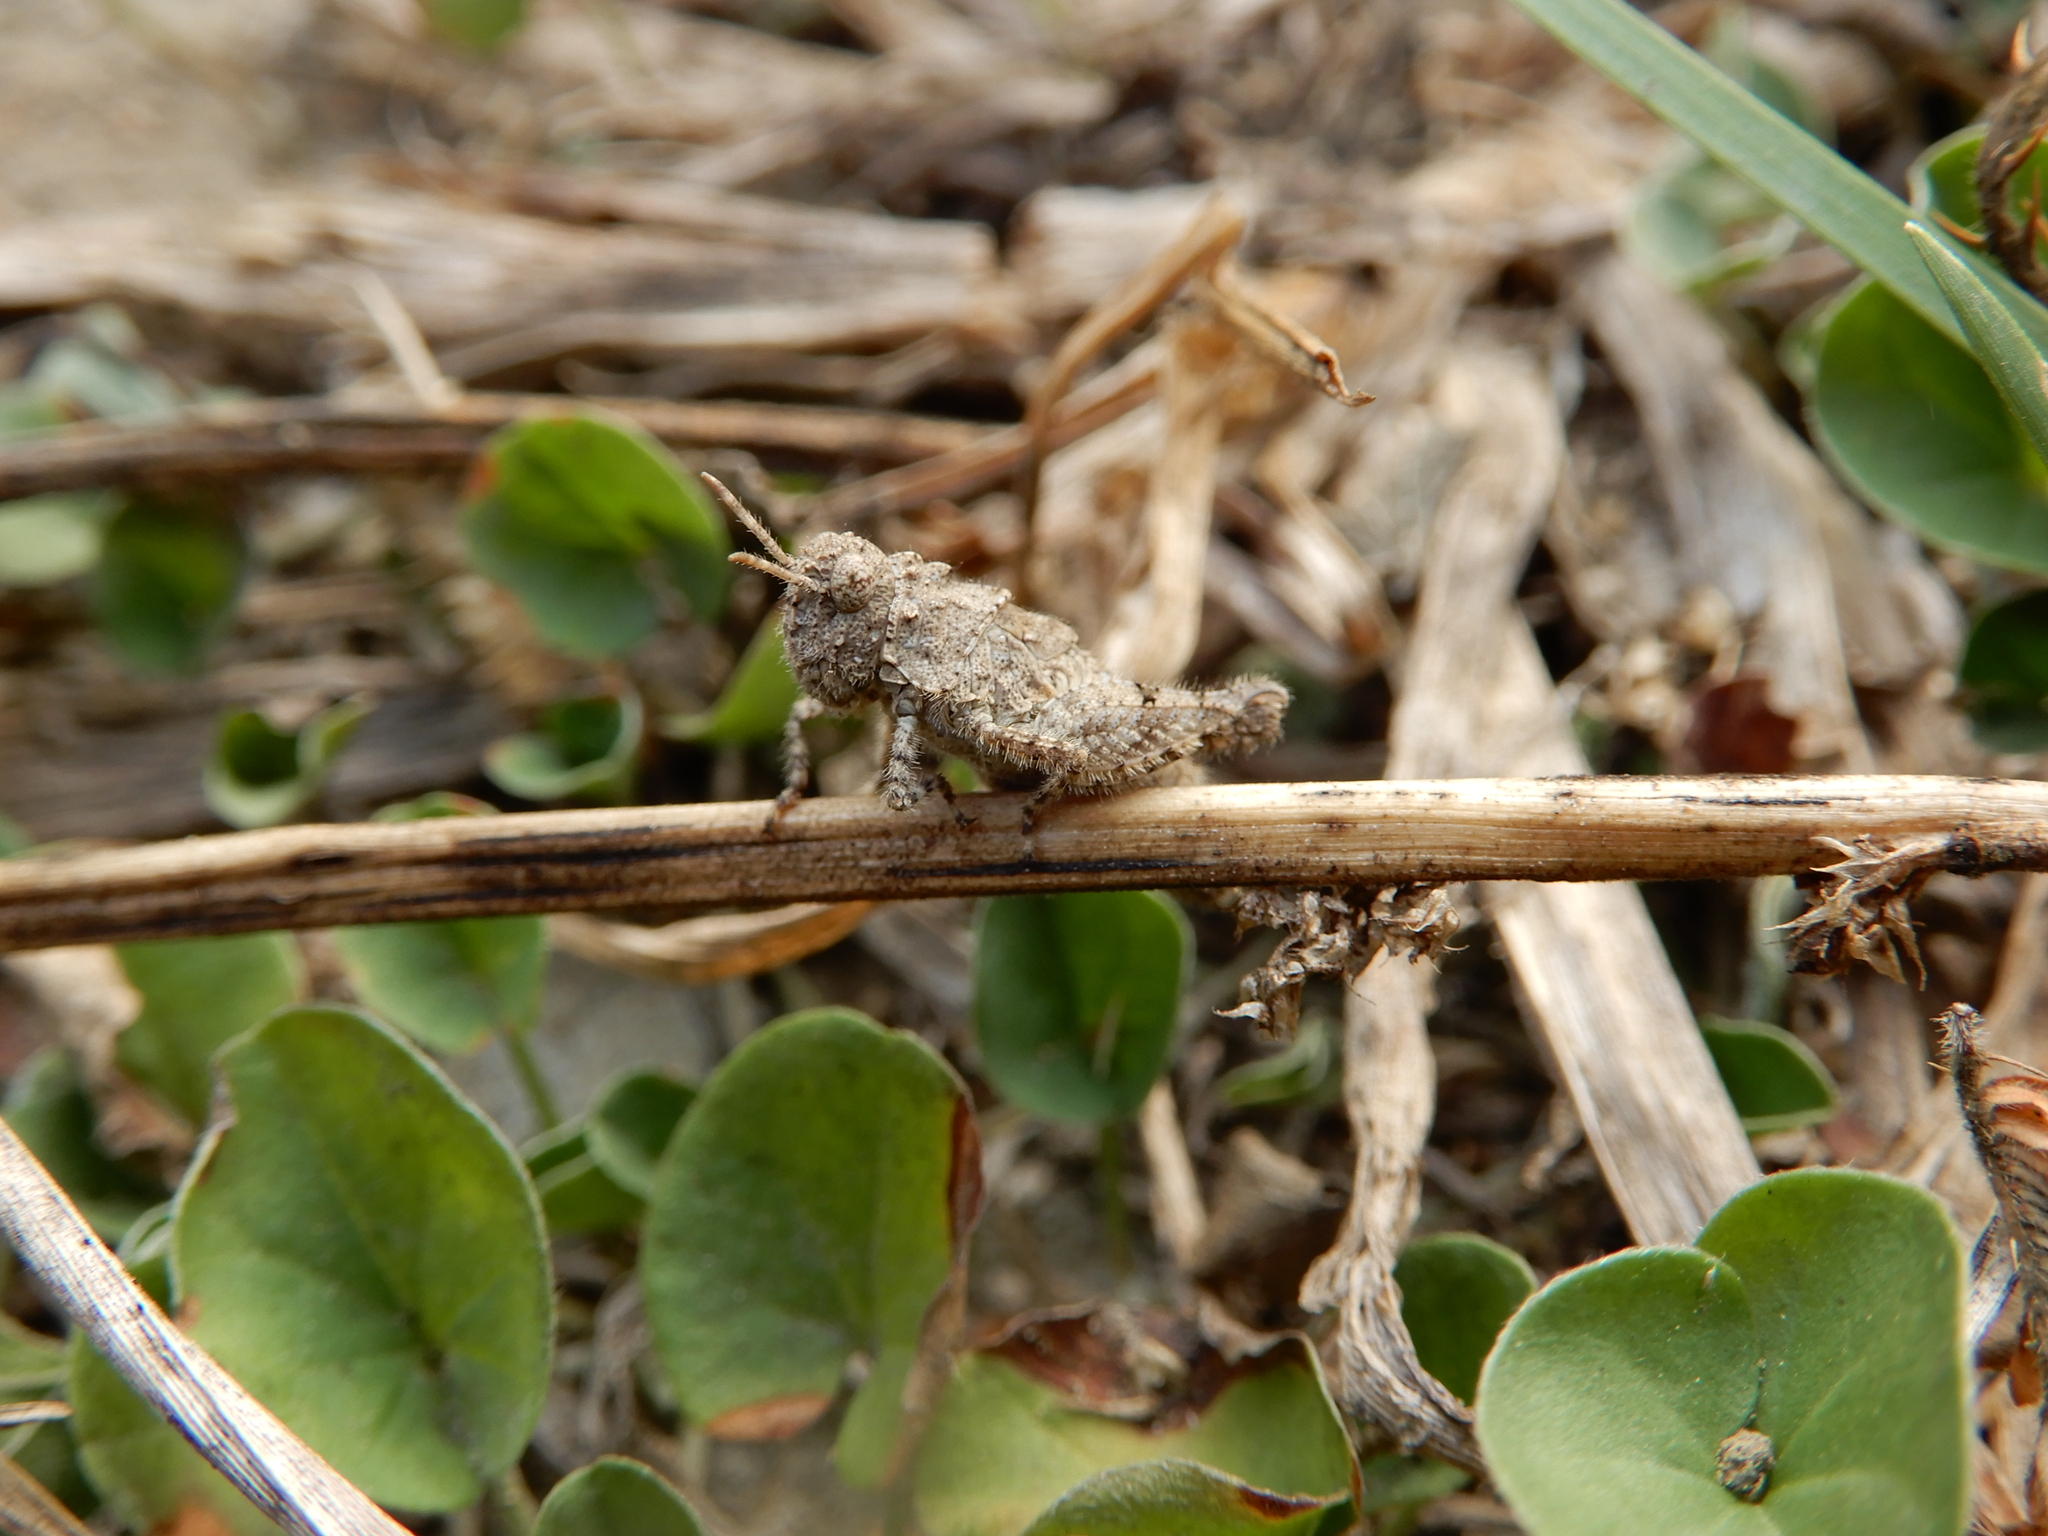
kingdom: Animalia
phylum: Arthropoda
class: Insecta
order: Orthoptera
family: Acrididae
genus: Trilophidia
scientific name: Trilophidia annulata
